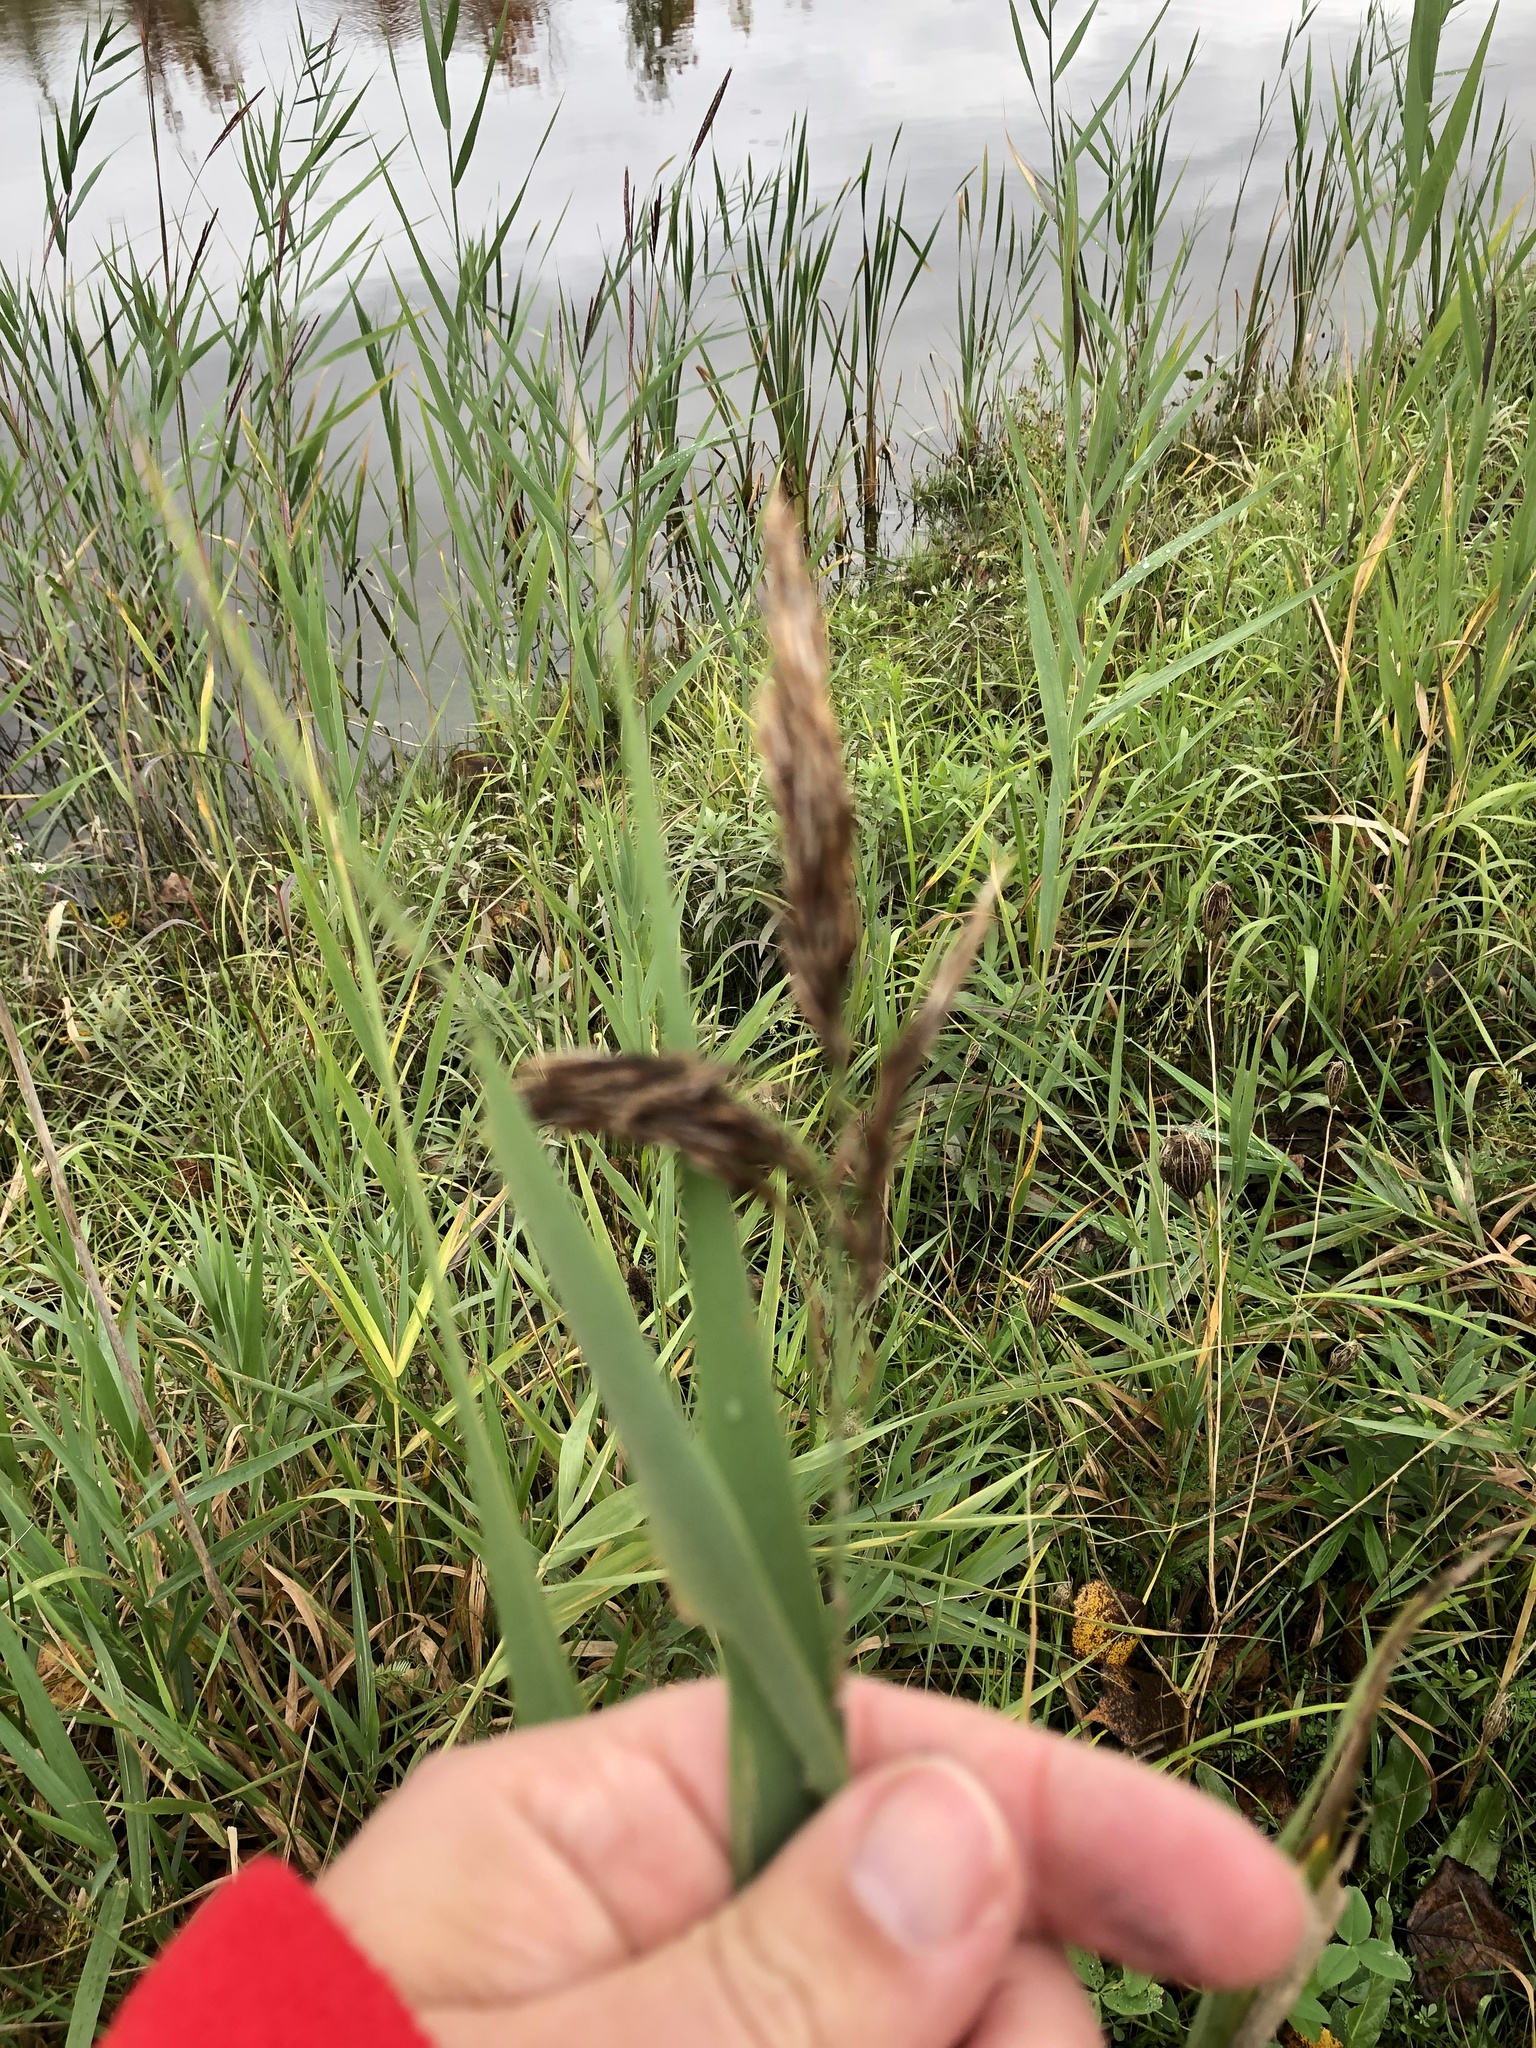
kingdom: Plantae
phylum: Tracheophyta
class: Liliopsida
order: Poales
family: Poaceae
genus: Phragmites
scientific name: Phragmites australis
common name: Common reed
